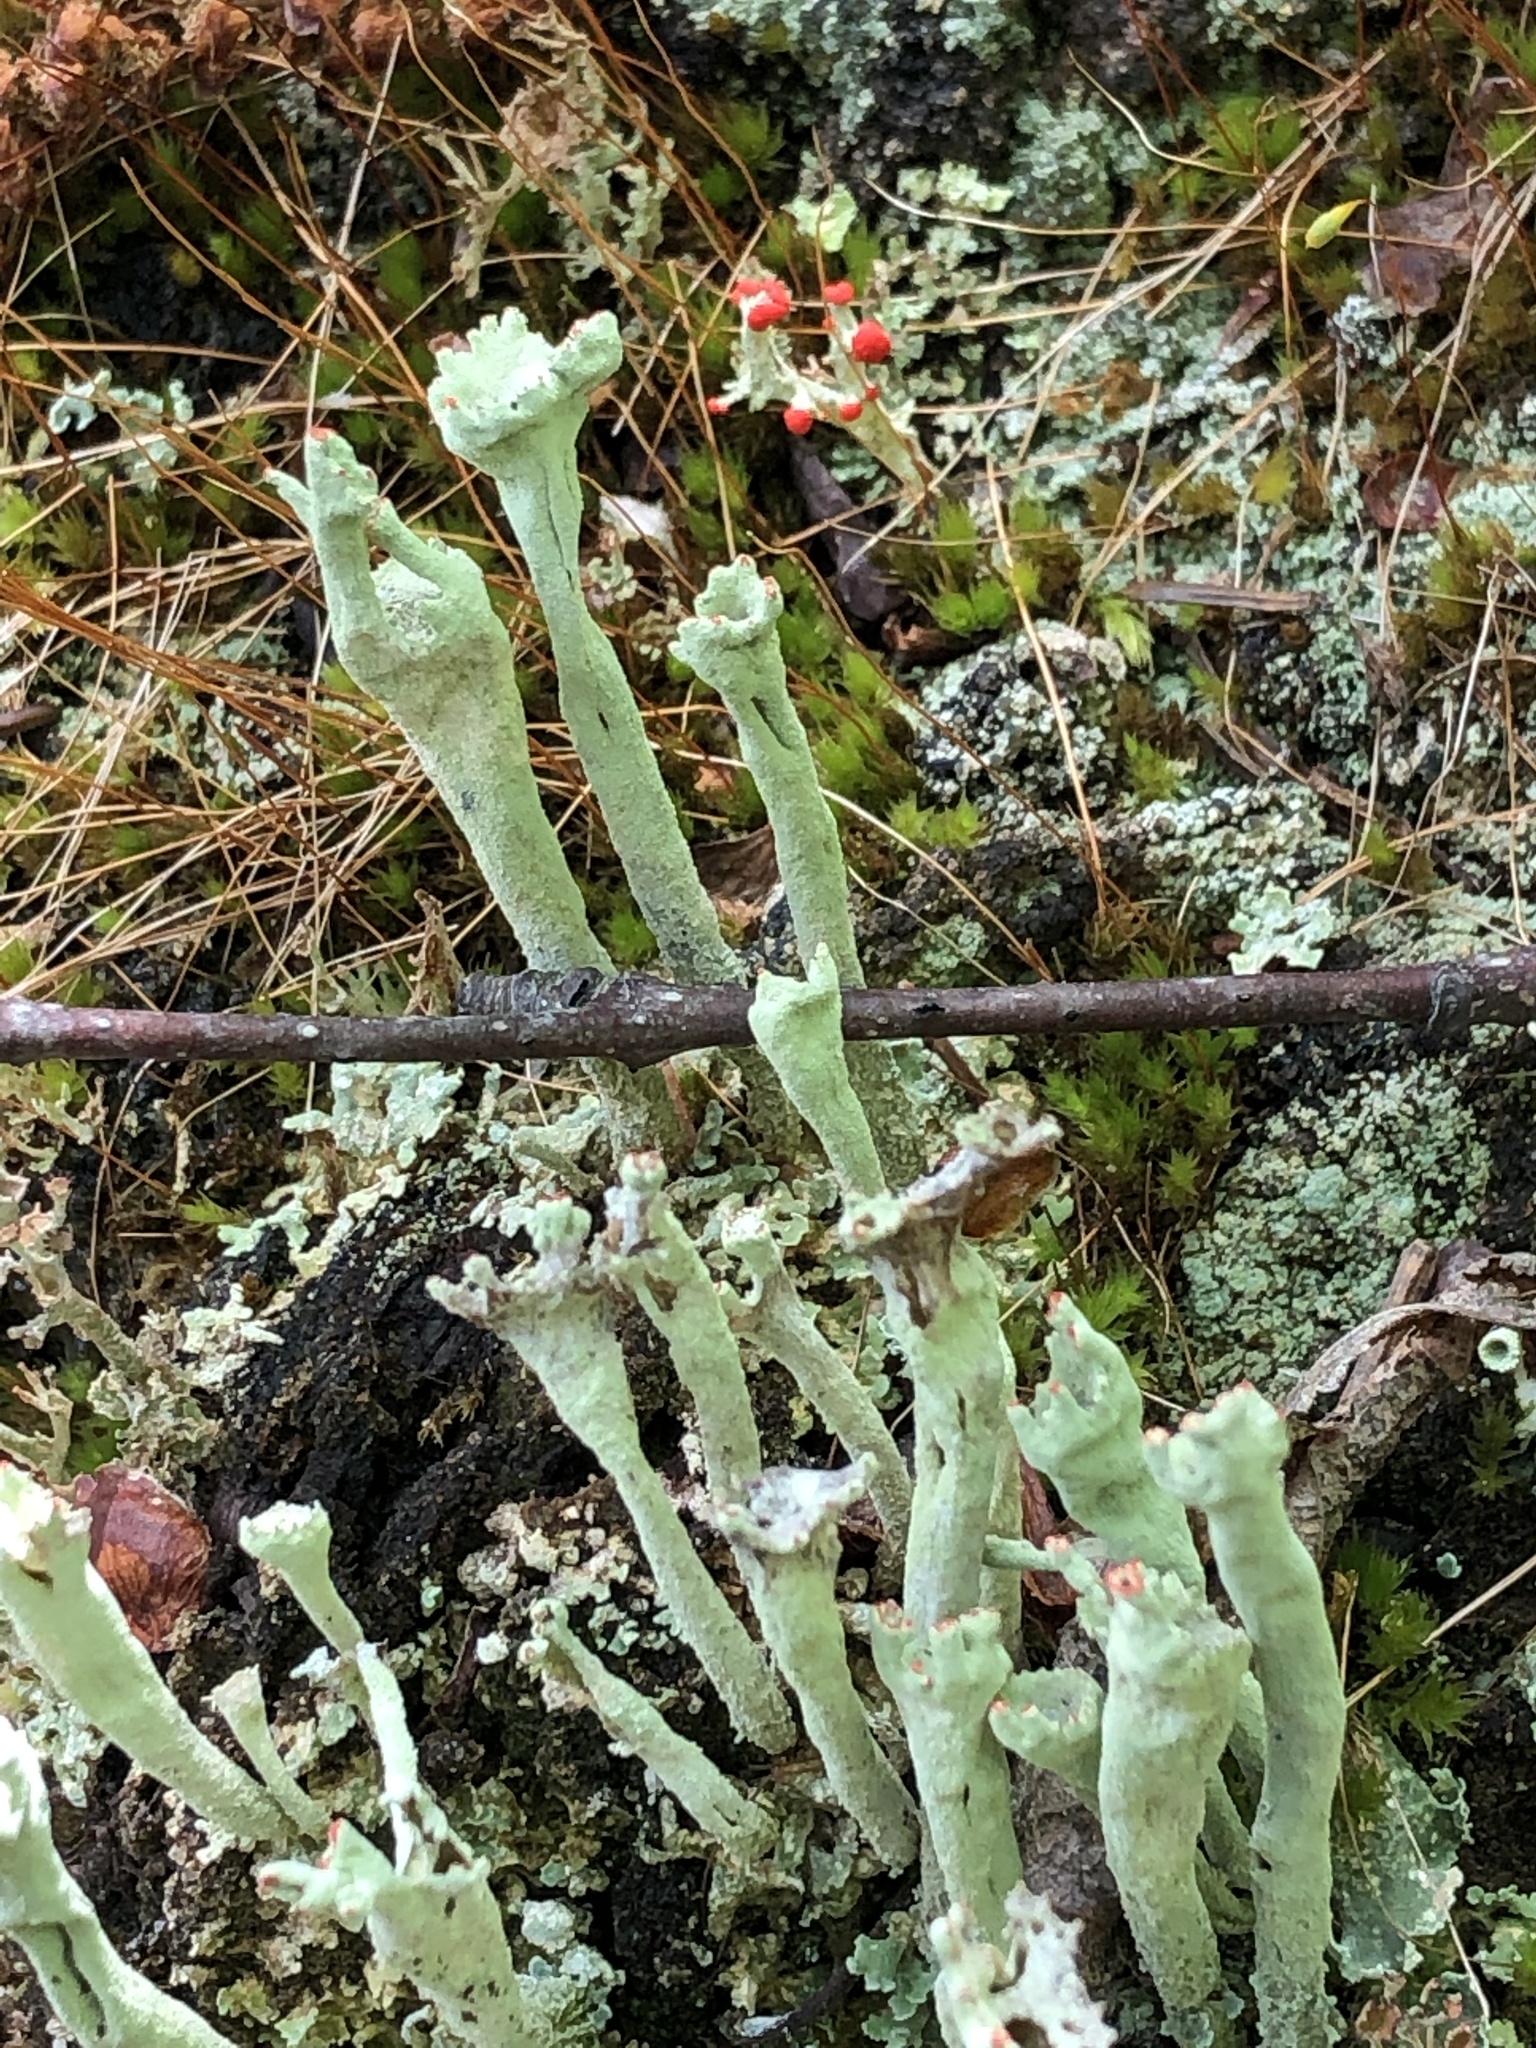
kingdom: Fungi
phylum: Ascomycota
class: Lecanoromycetes
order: Lecanorales
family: Cladoniaceae
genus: Cladonia
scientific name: Cladonia sulphurina
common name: Greater sulphur-cup lichen
